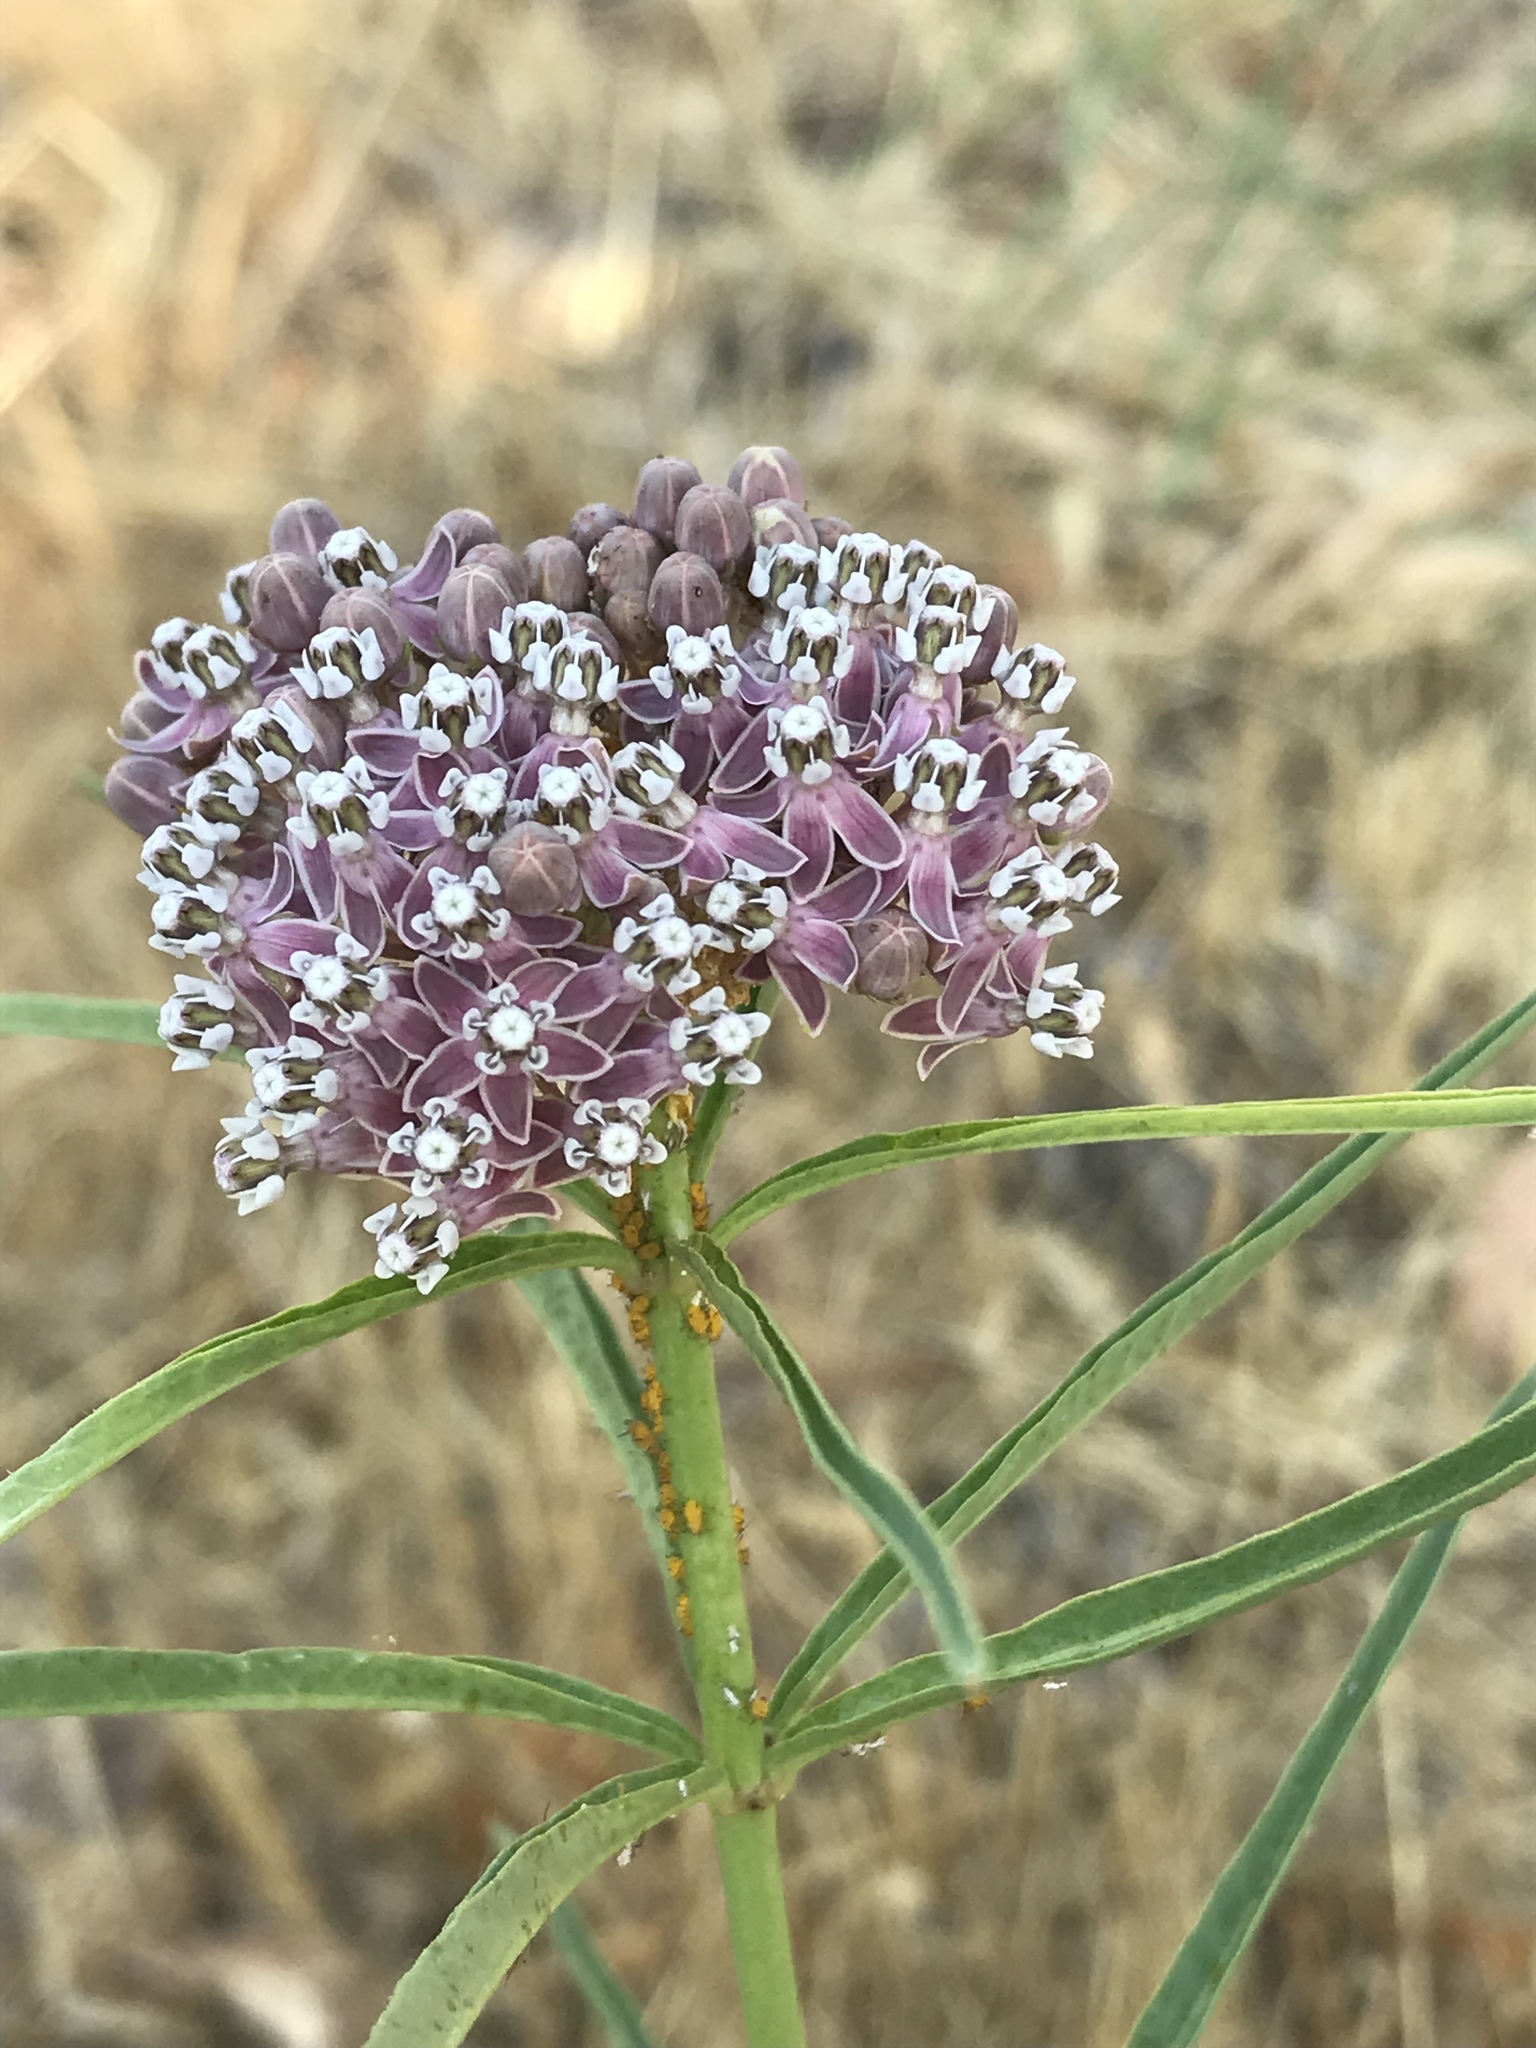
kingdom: Plantae
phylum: Tracheophyta
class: Magnoliopsida
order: Gentianales
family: Apocynaceae
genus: Asclepias
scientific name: Asclepias fascicularis
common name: Mexican milkweed
